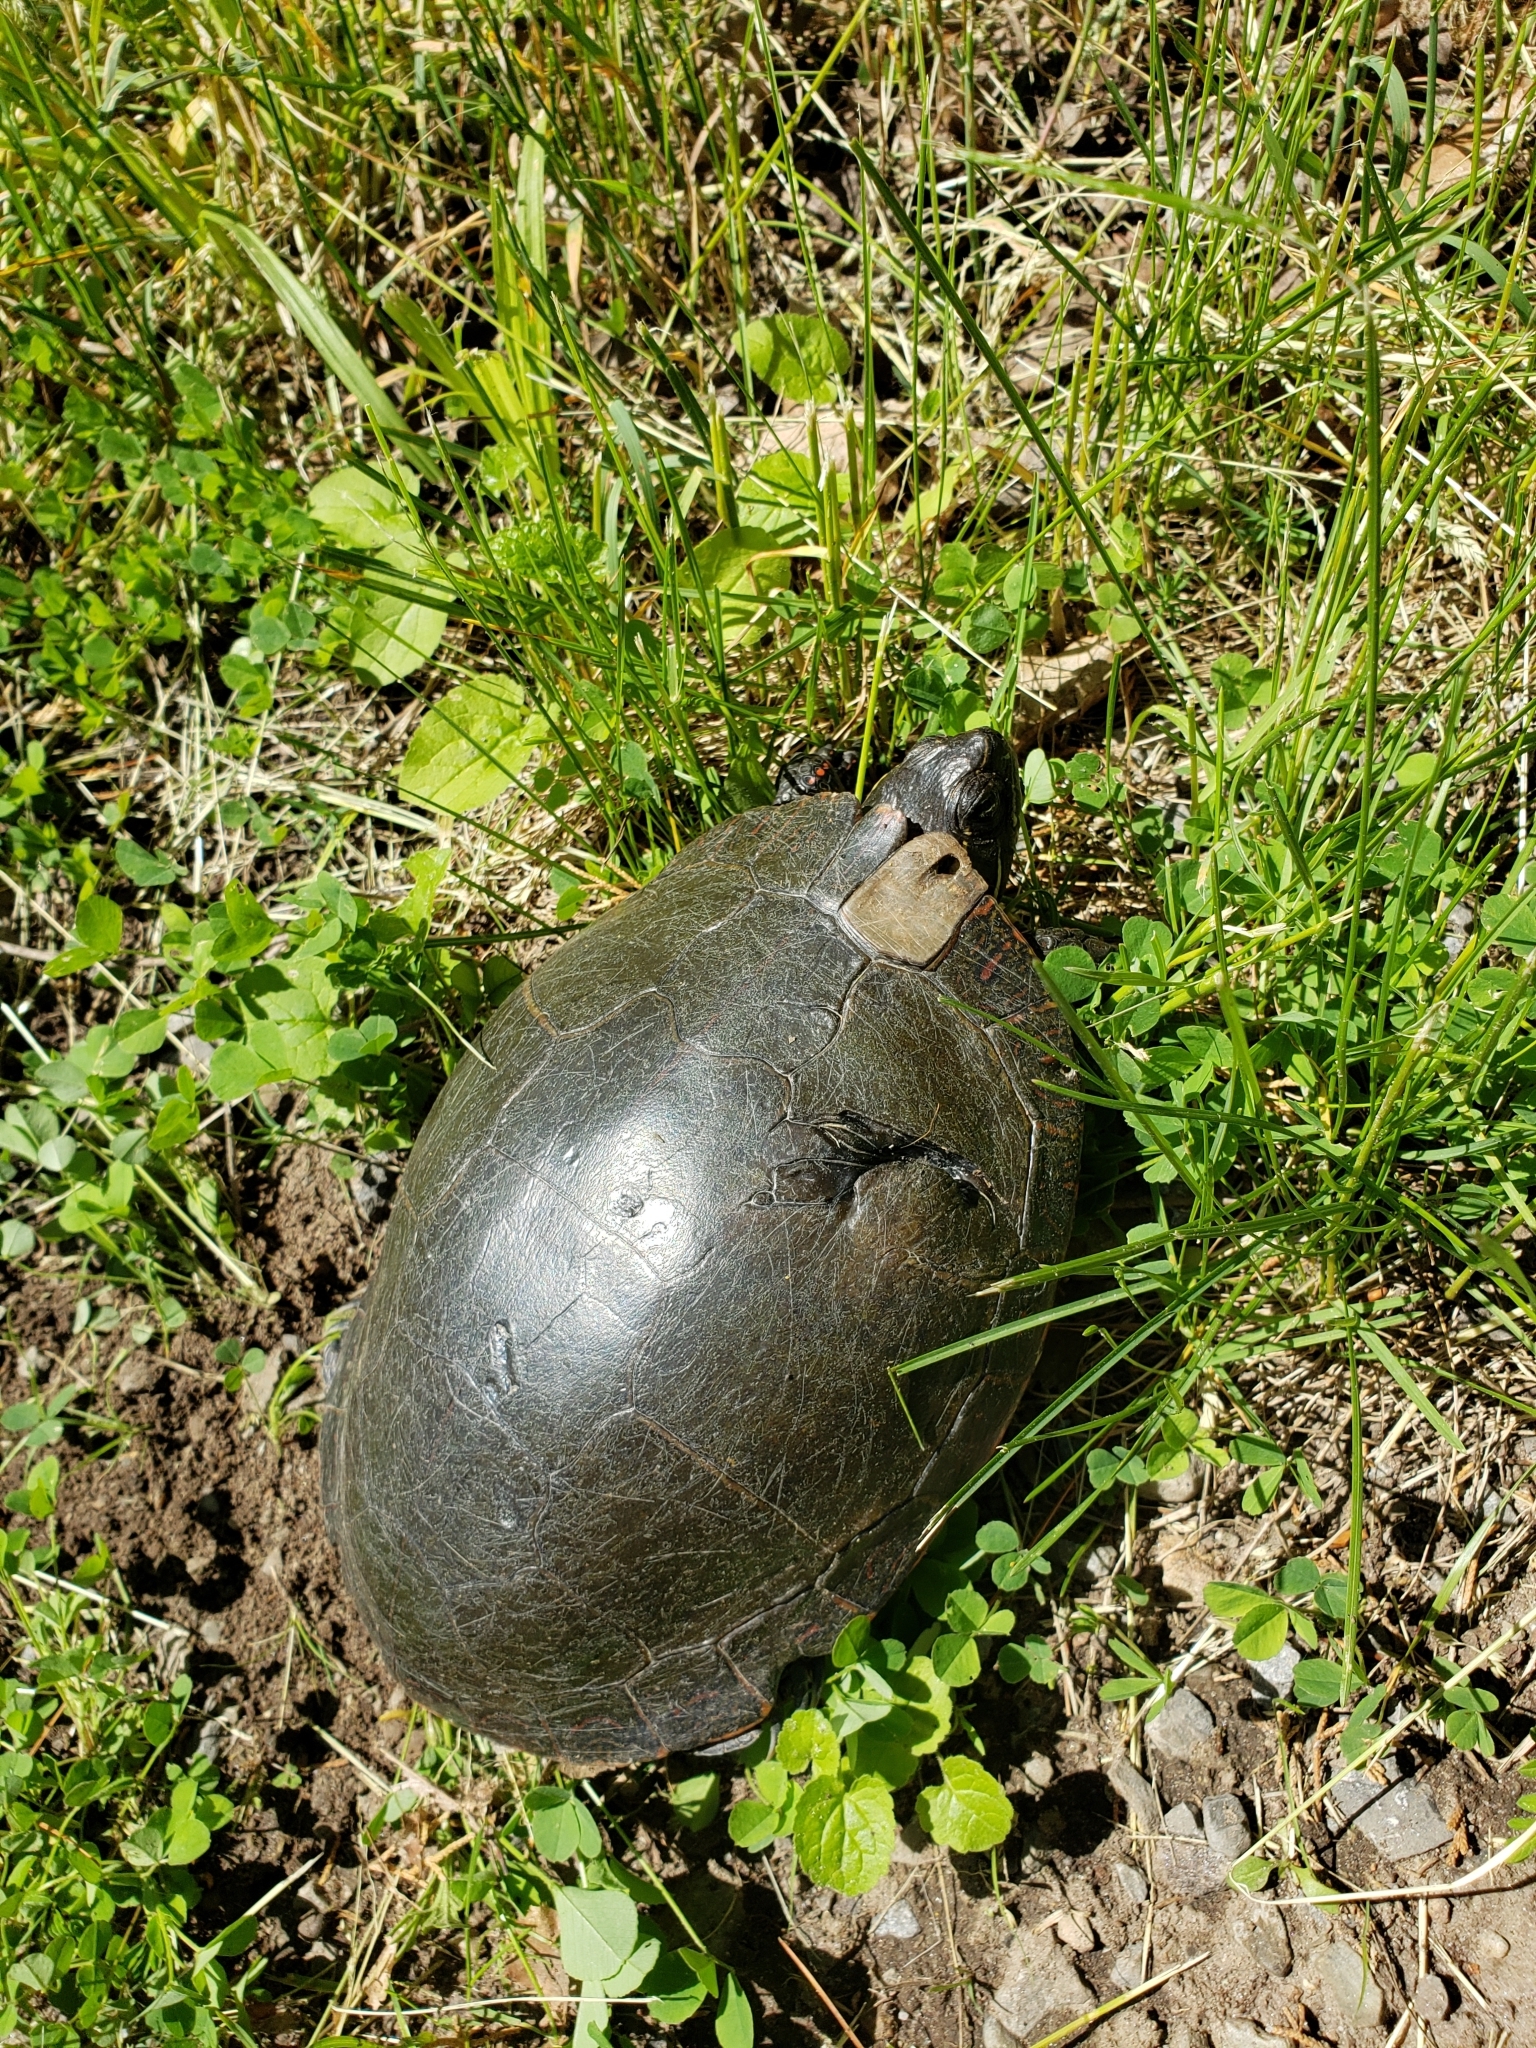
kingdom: Animalia
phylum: Chordata
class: Testudines
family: Emydidae
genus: Chrysemys
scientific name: Chrysemys picta
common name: Painted turtle
